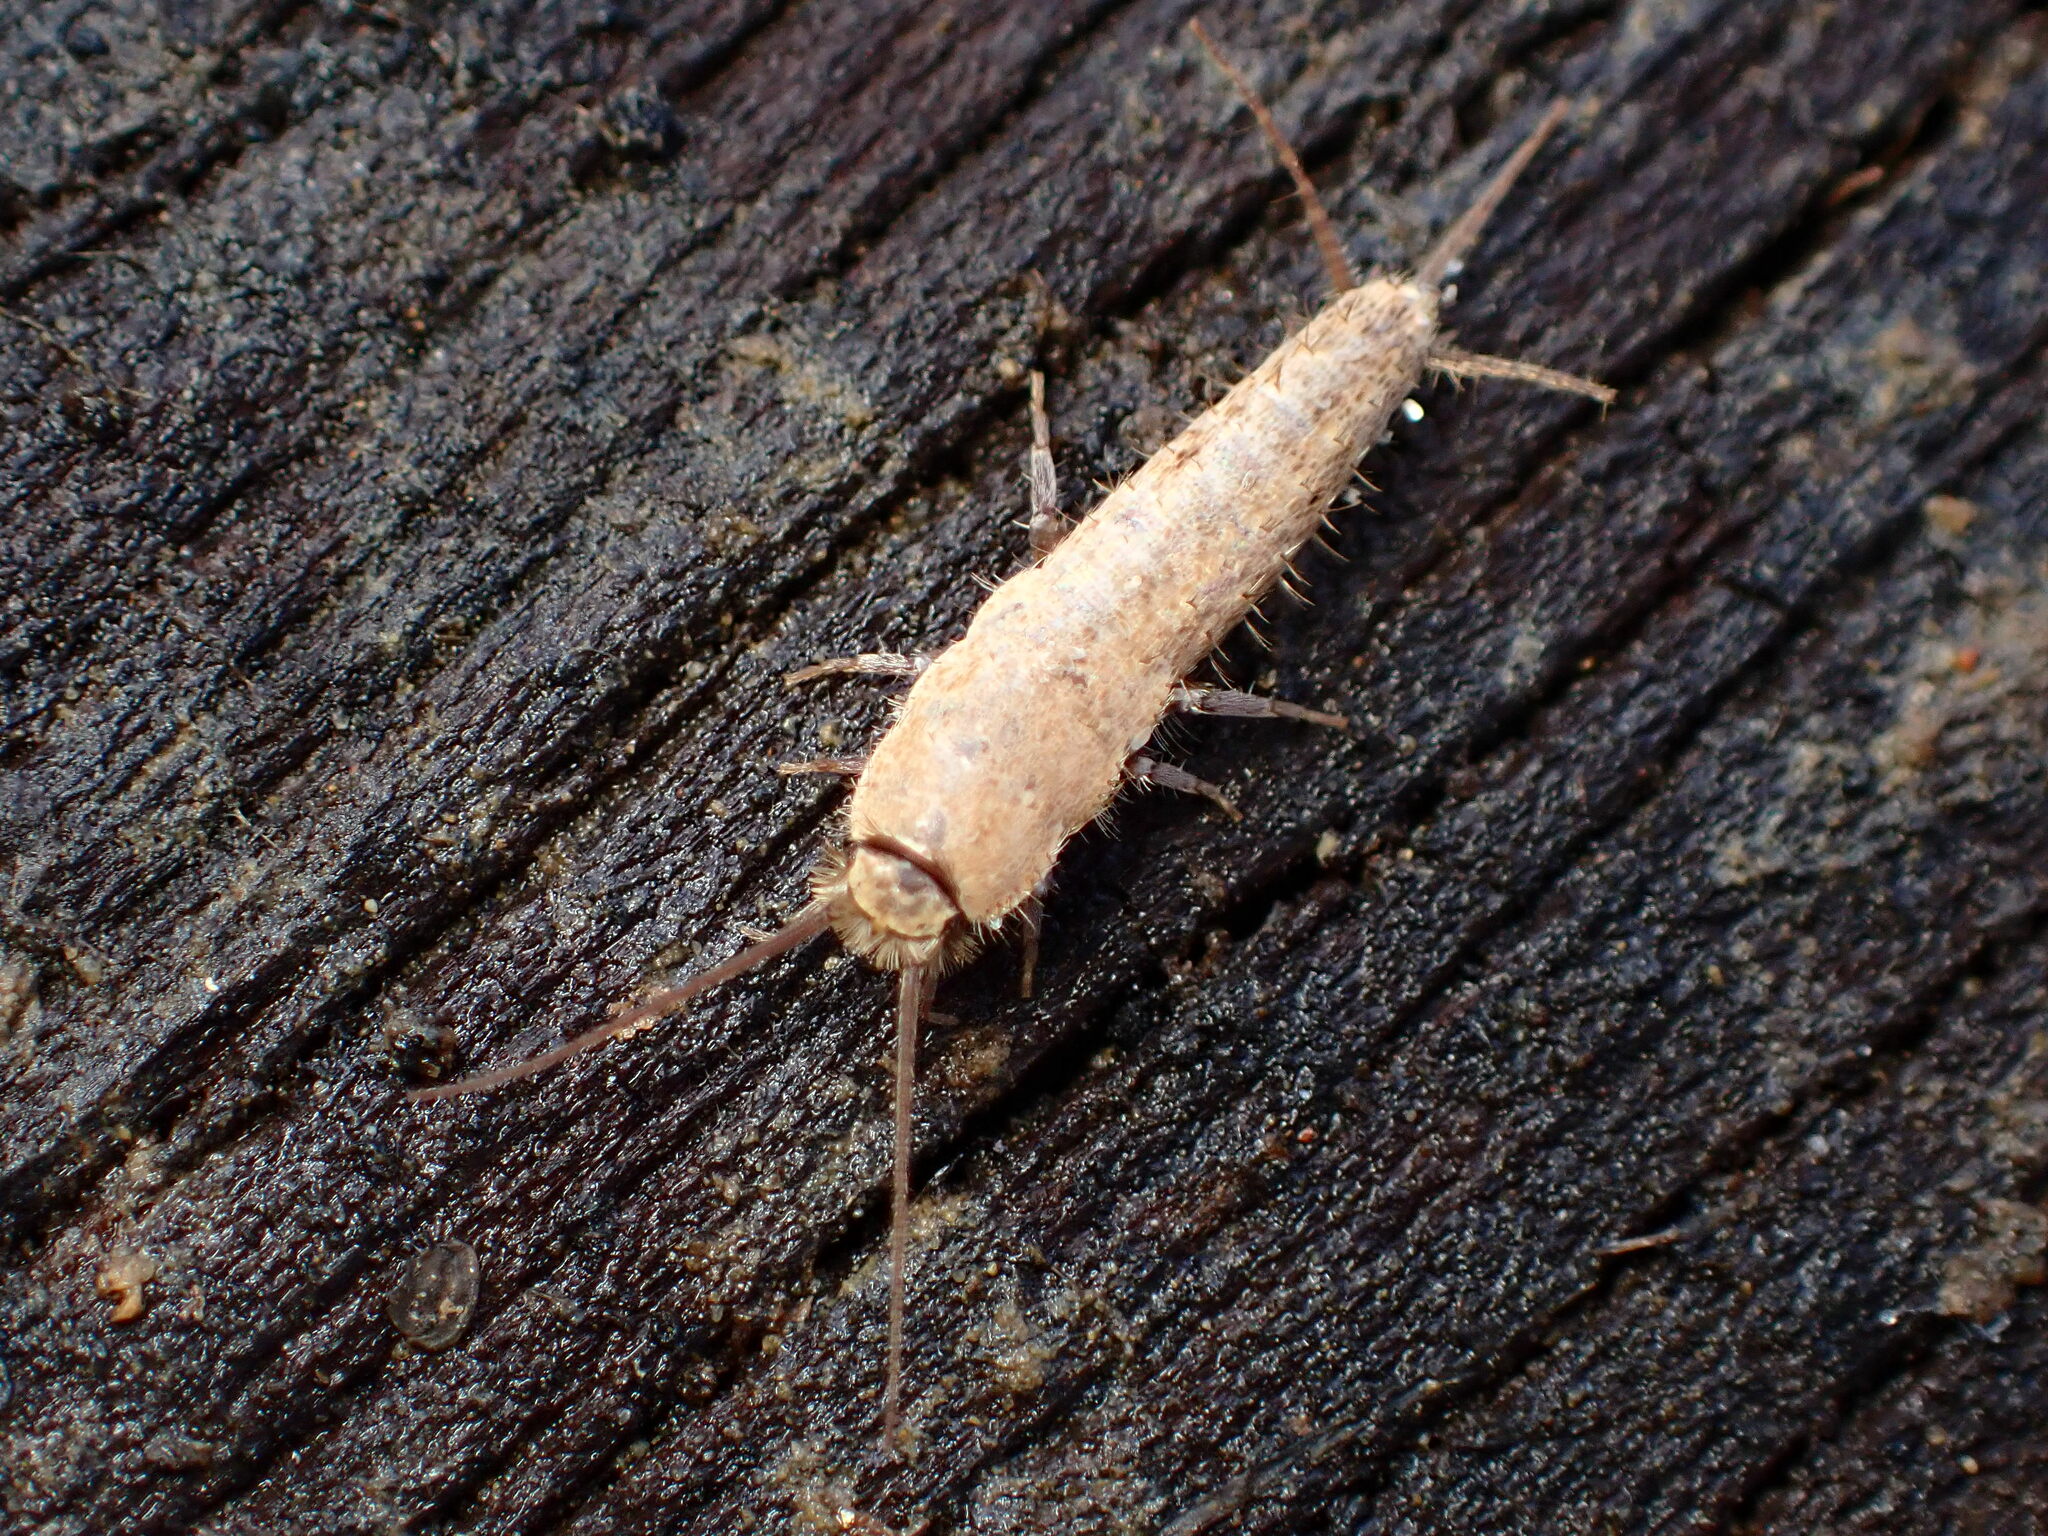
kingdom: Animalia
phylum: Arthropoda
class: Insecta
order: Zygentoma
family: Lepismatidae
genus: Ctenolepisma
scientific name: Ctenolepisma ciliata
